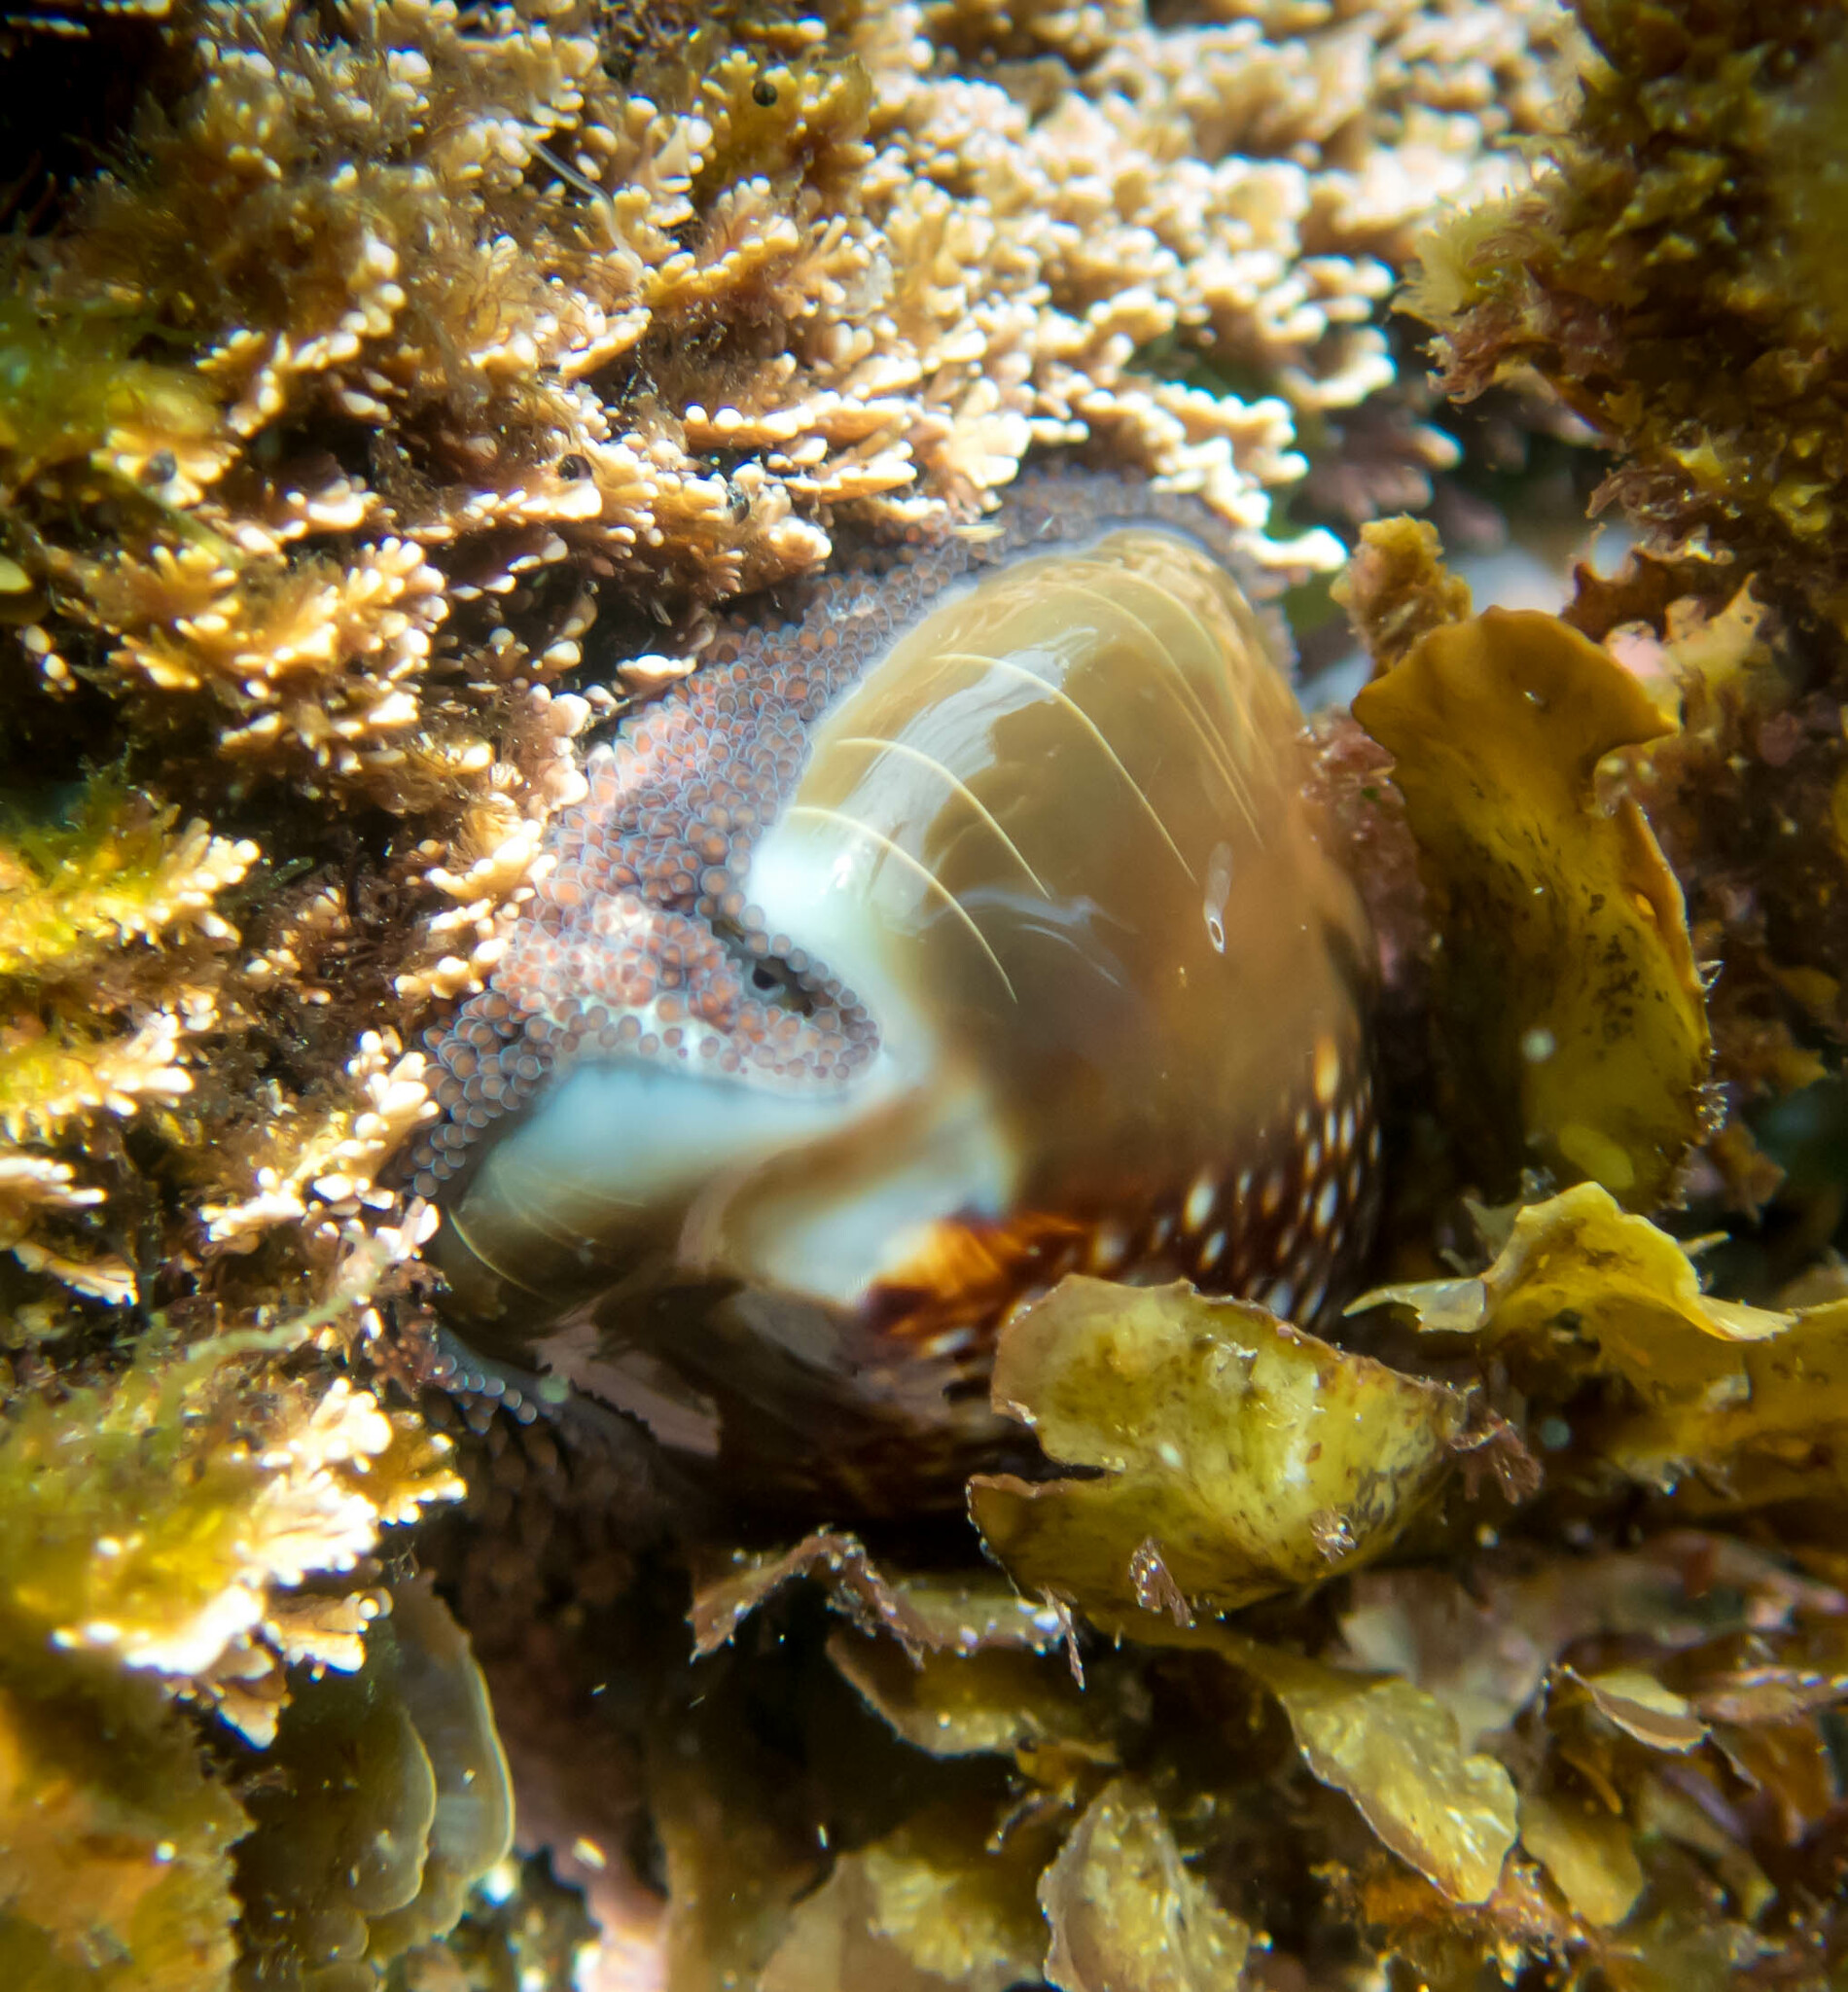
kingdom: Animalia
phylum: Mollusca
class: Gastropoda
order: Littorinimorpha
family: Cypraeidae
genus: Monetaria
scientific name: Monetaria caputserpentis
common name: Serpent's head cowrie
